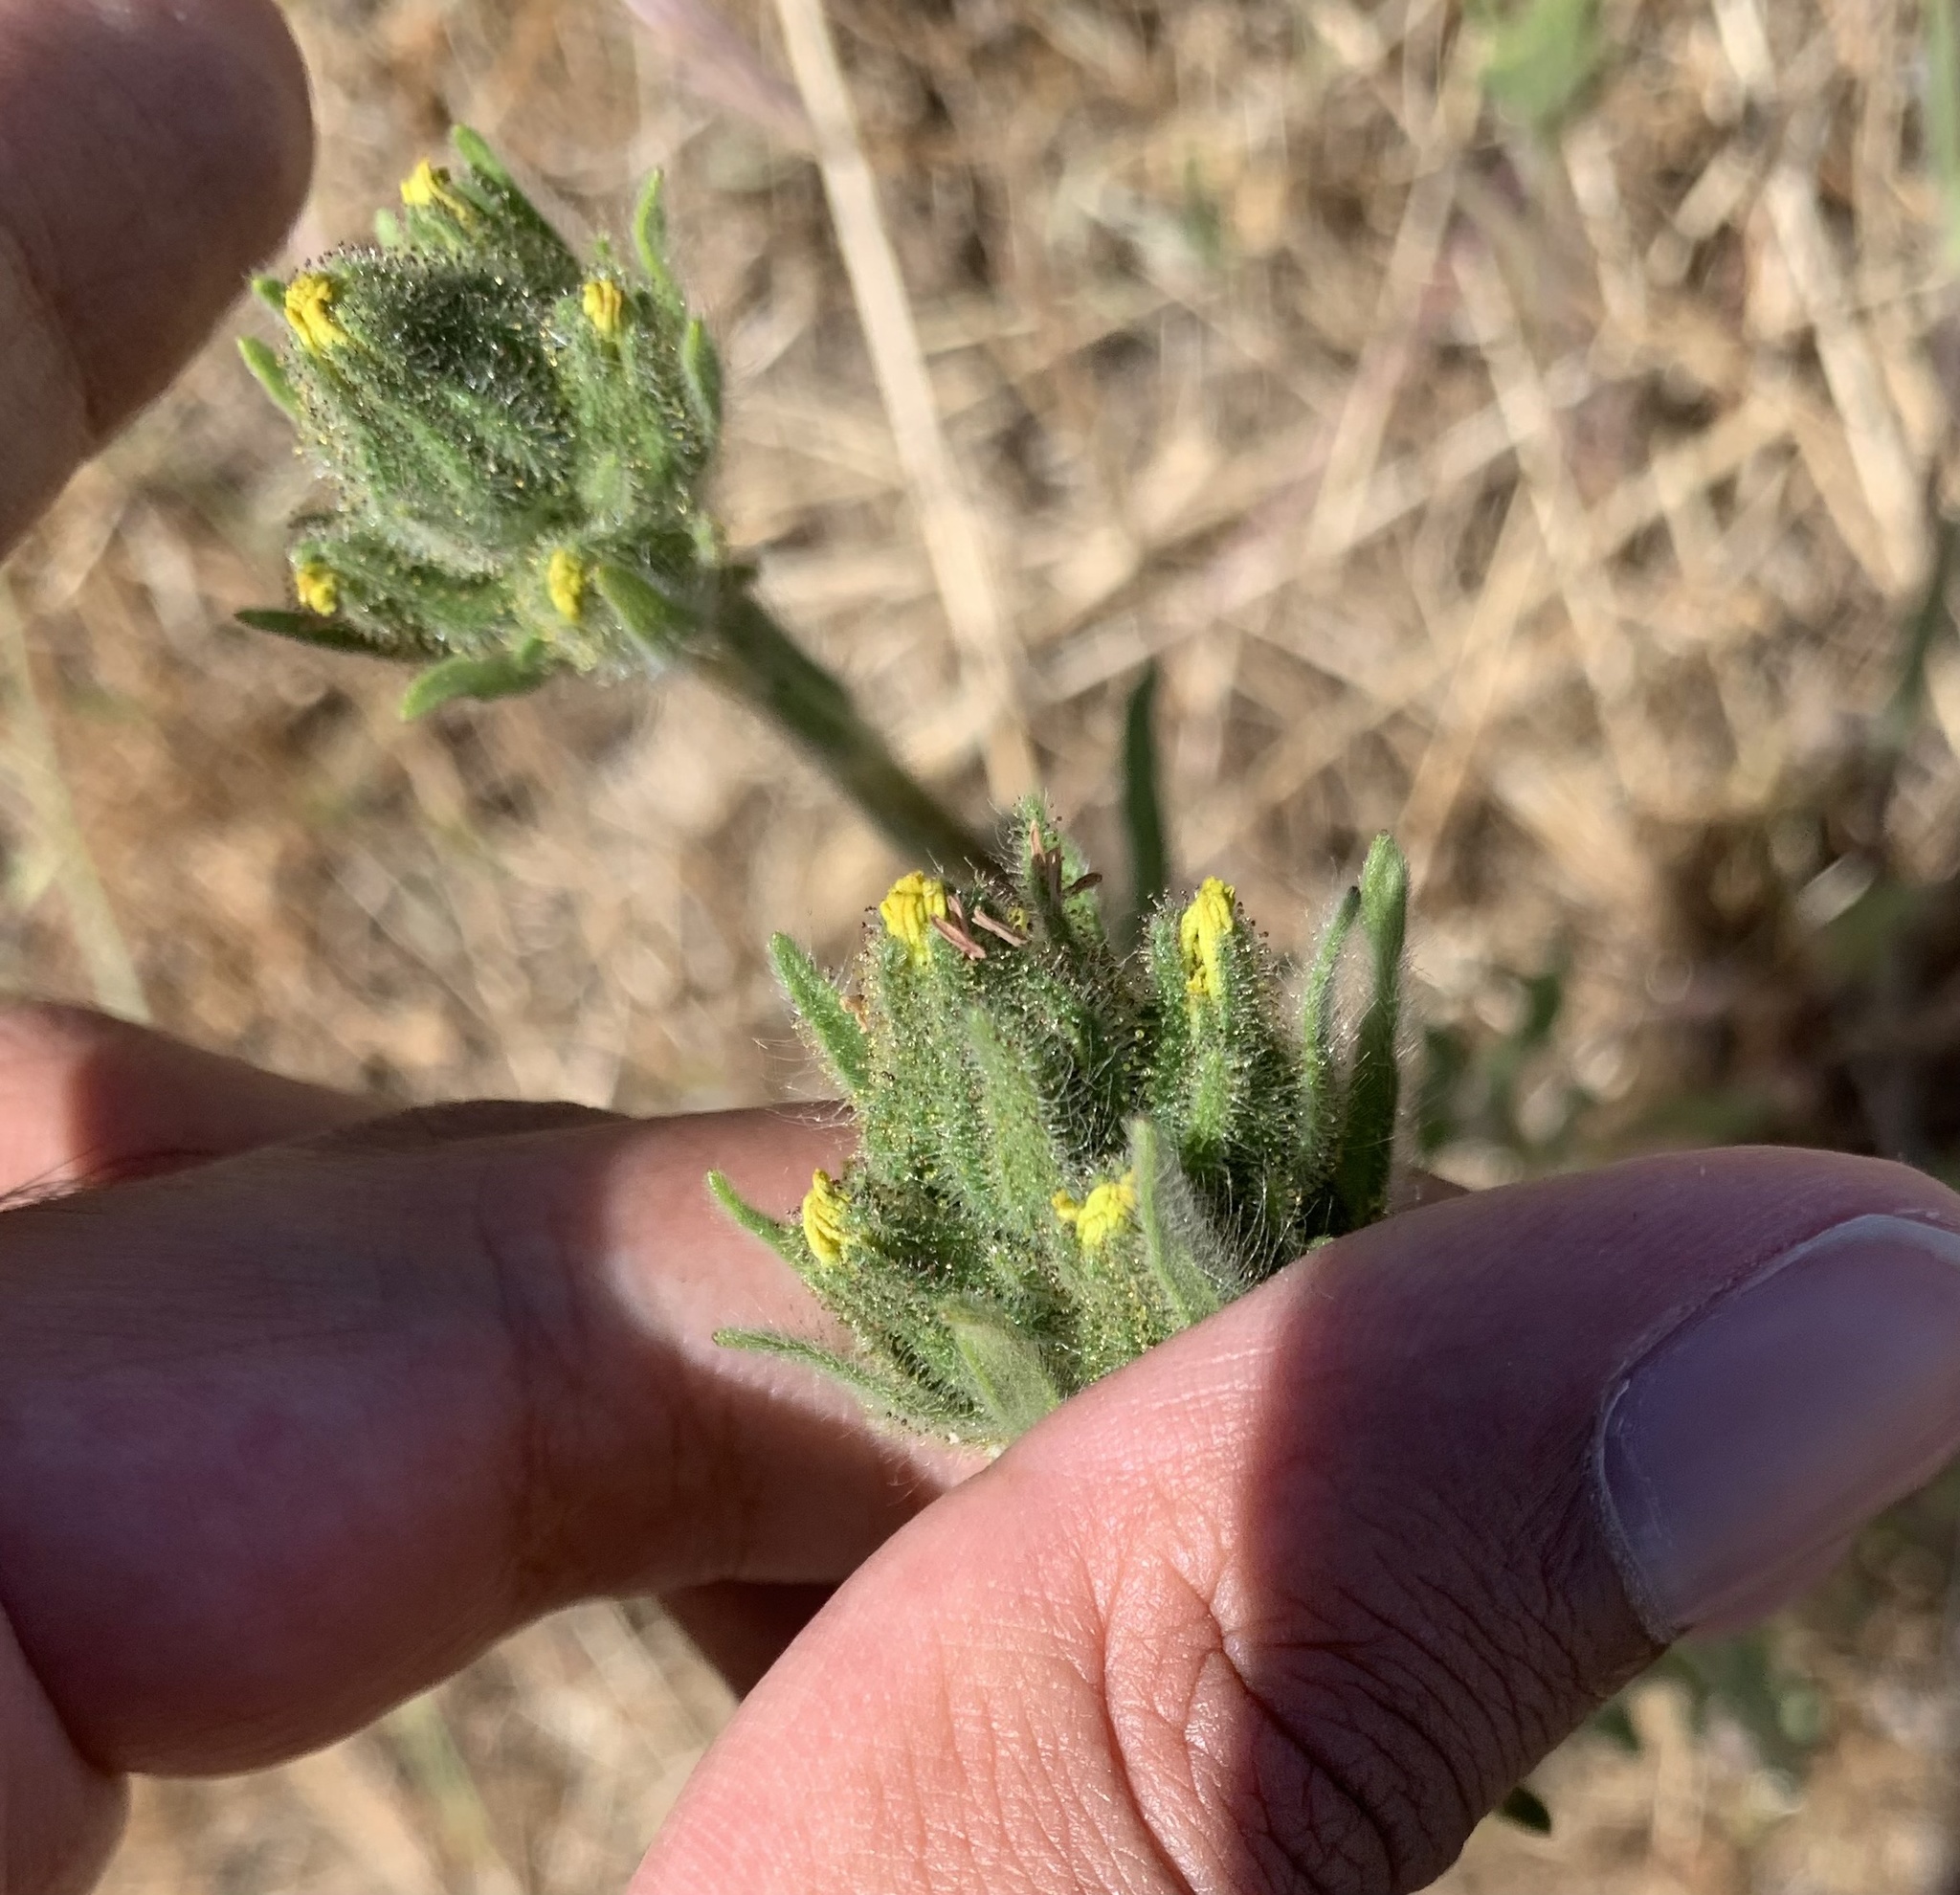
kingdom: Plantae
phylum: Tracheophyta
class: Magnoliopsida
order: Asterales
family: Asteraceae
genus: Madia
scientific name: Madia sativa
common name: Coast tarweed
